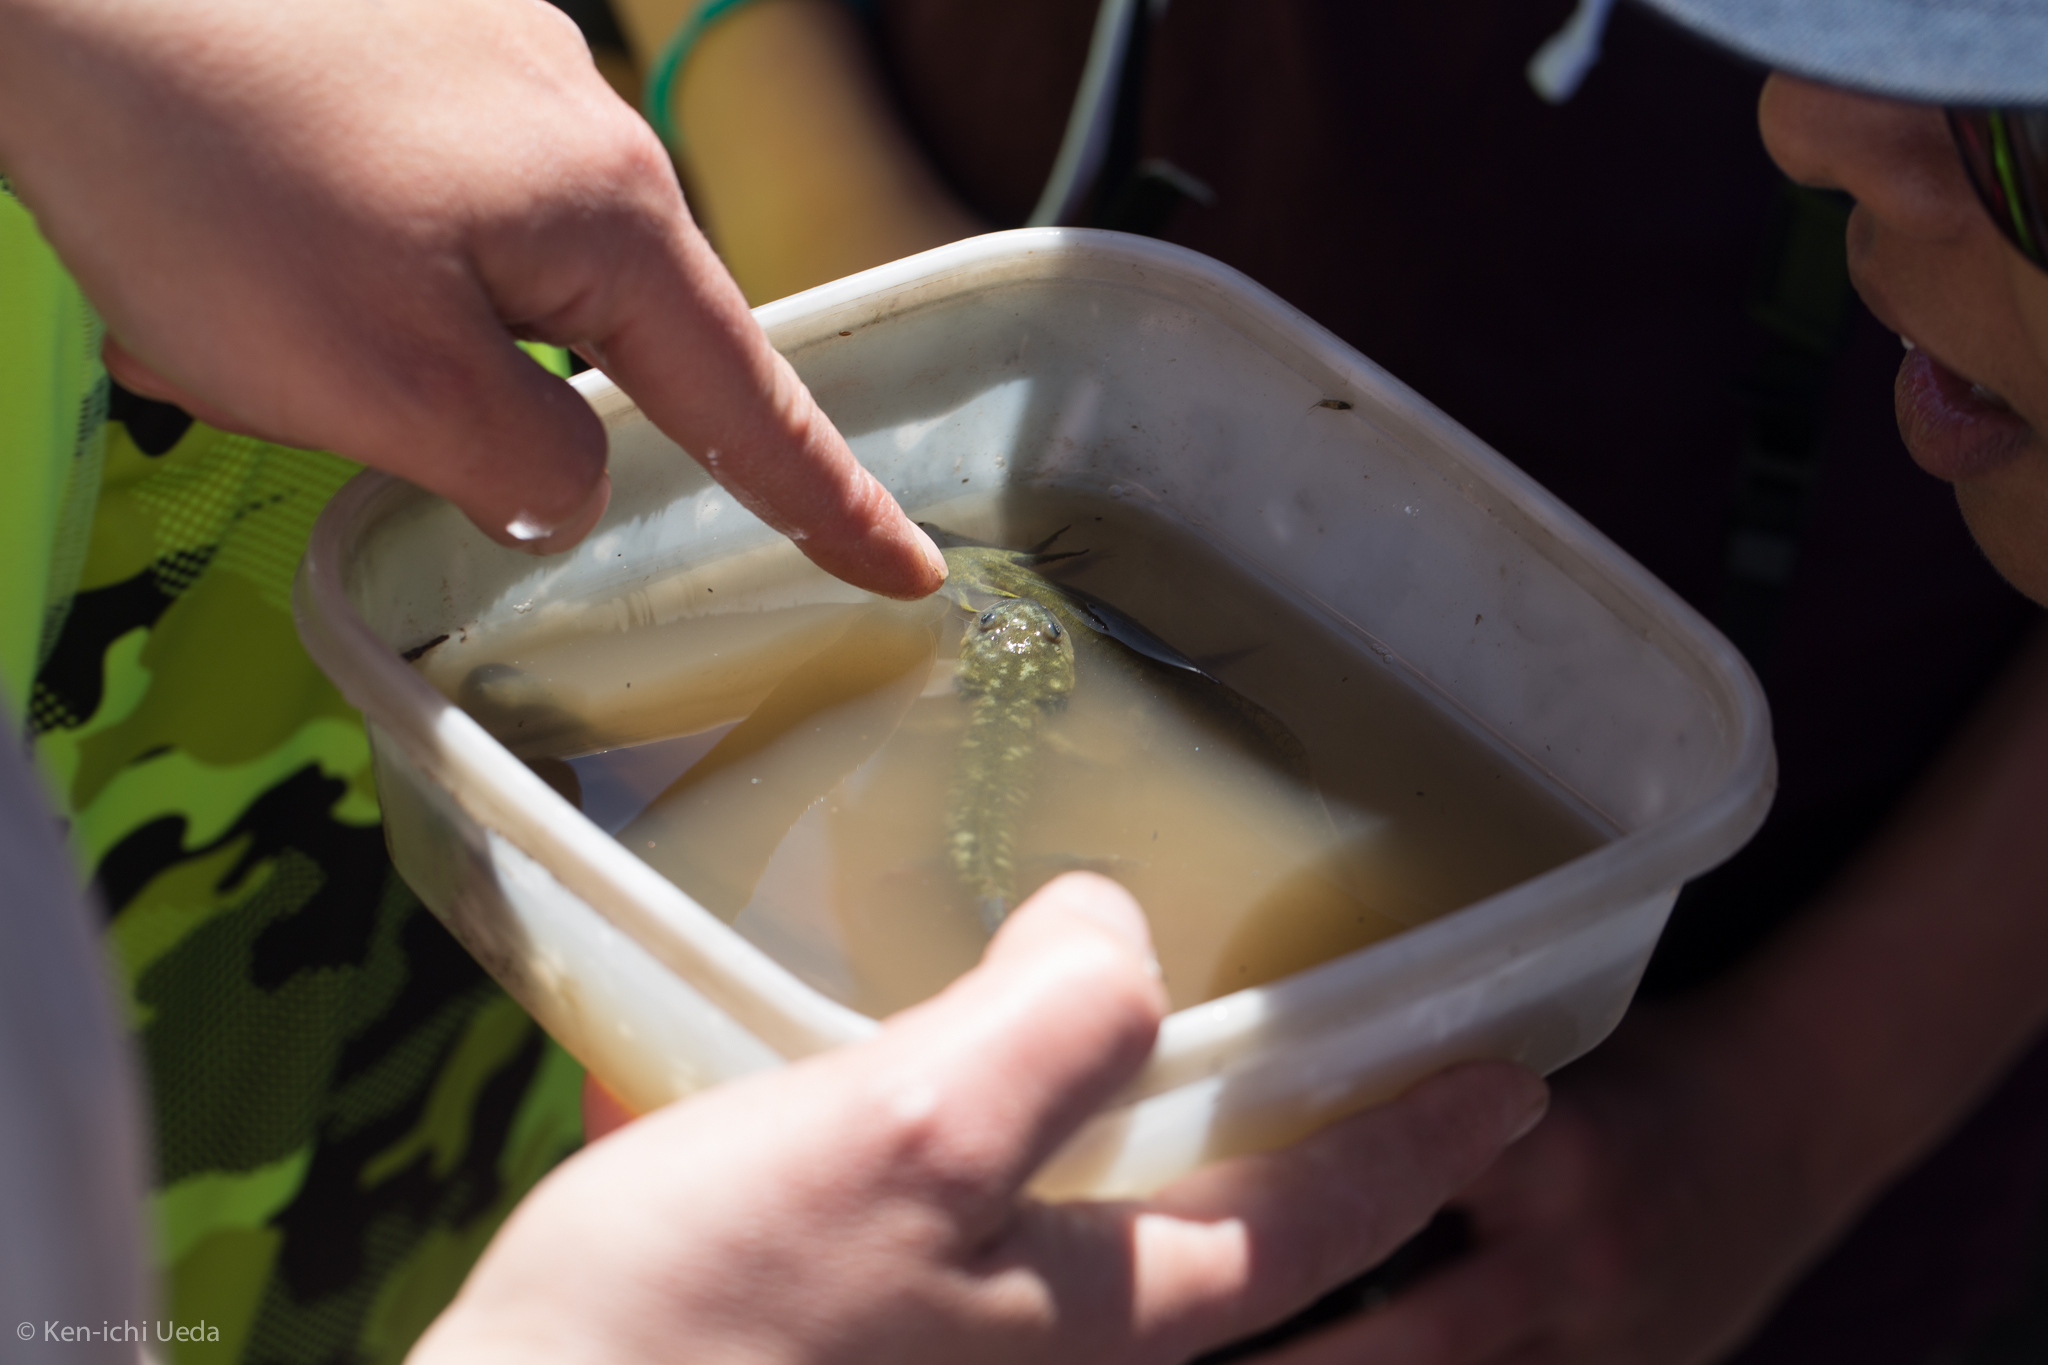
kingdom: Animalia
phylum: Chordata
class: Amphibia
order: Caudata
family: Ambystomatidae
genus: Ambystoma
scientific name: Ambystoma californiense
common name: California tiger salamander
